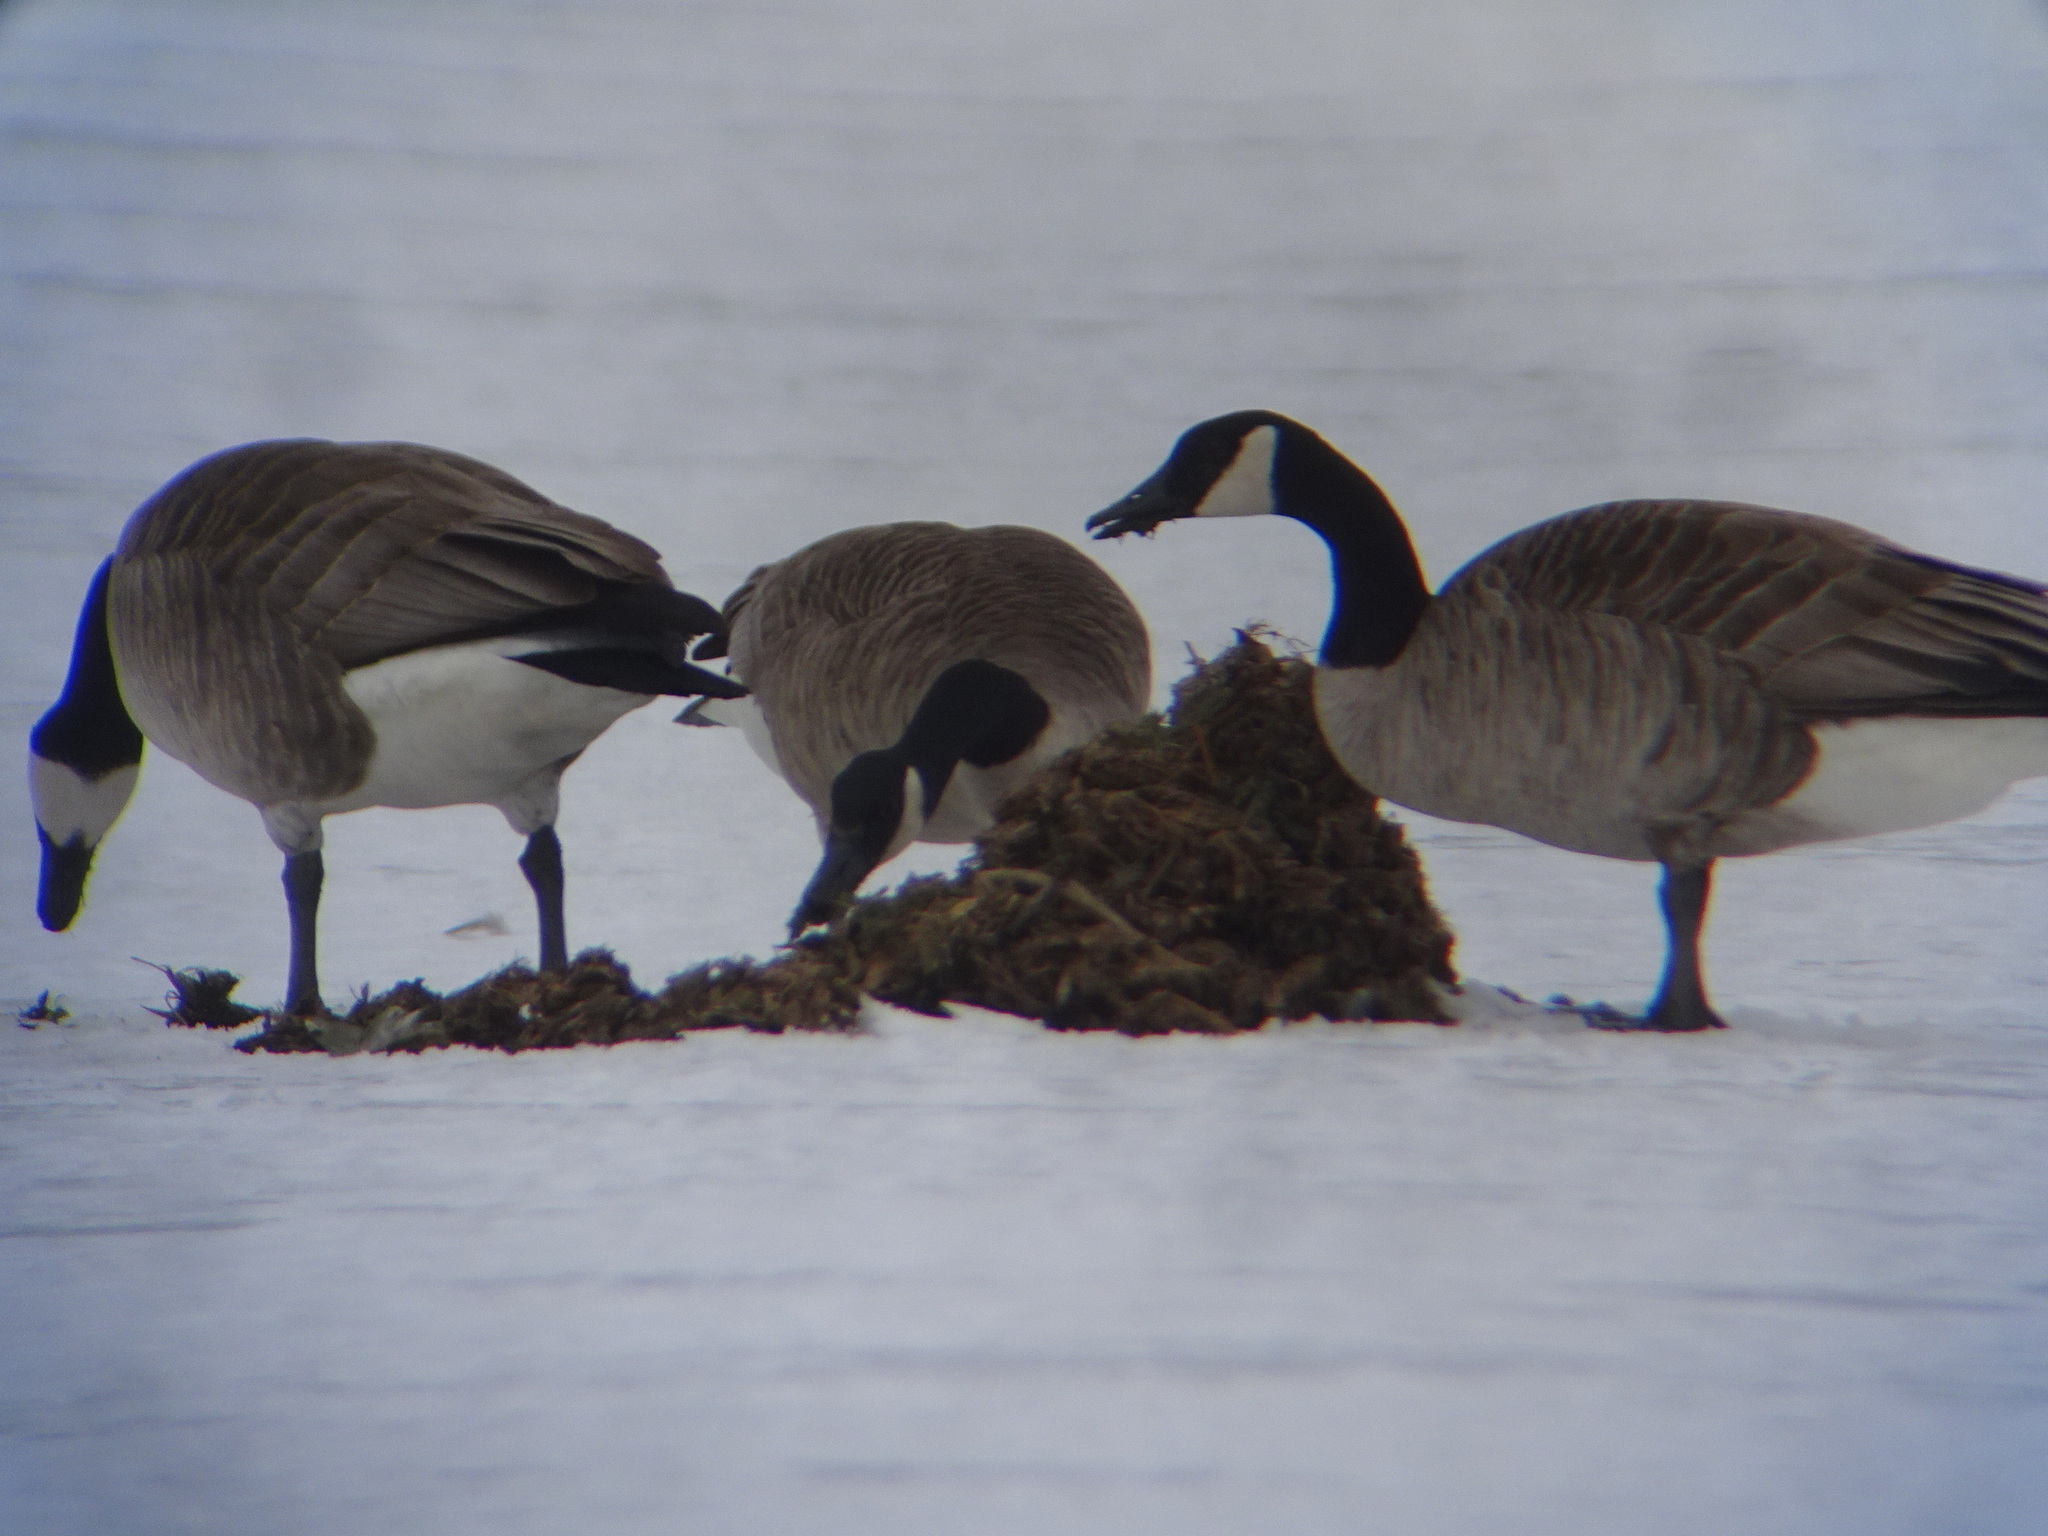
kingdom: Animalia
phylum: Chordata
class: Aves
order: Anseriformes
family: Anatidae
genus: Branta
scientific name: Branta canadensis
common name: Canada goose
